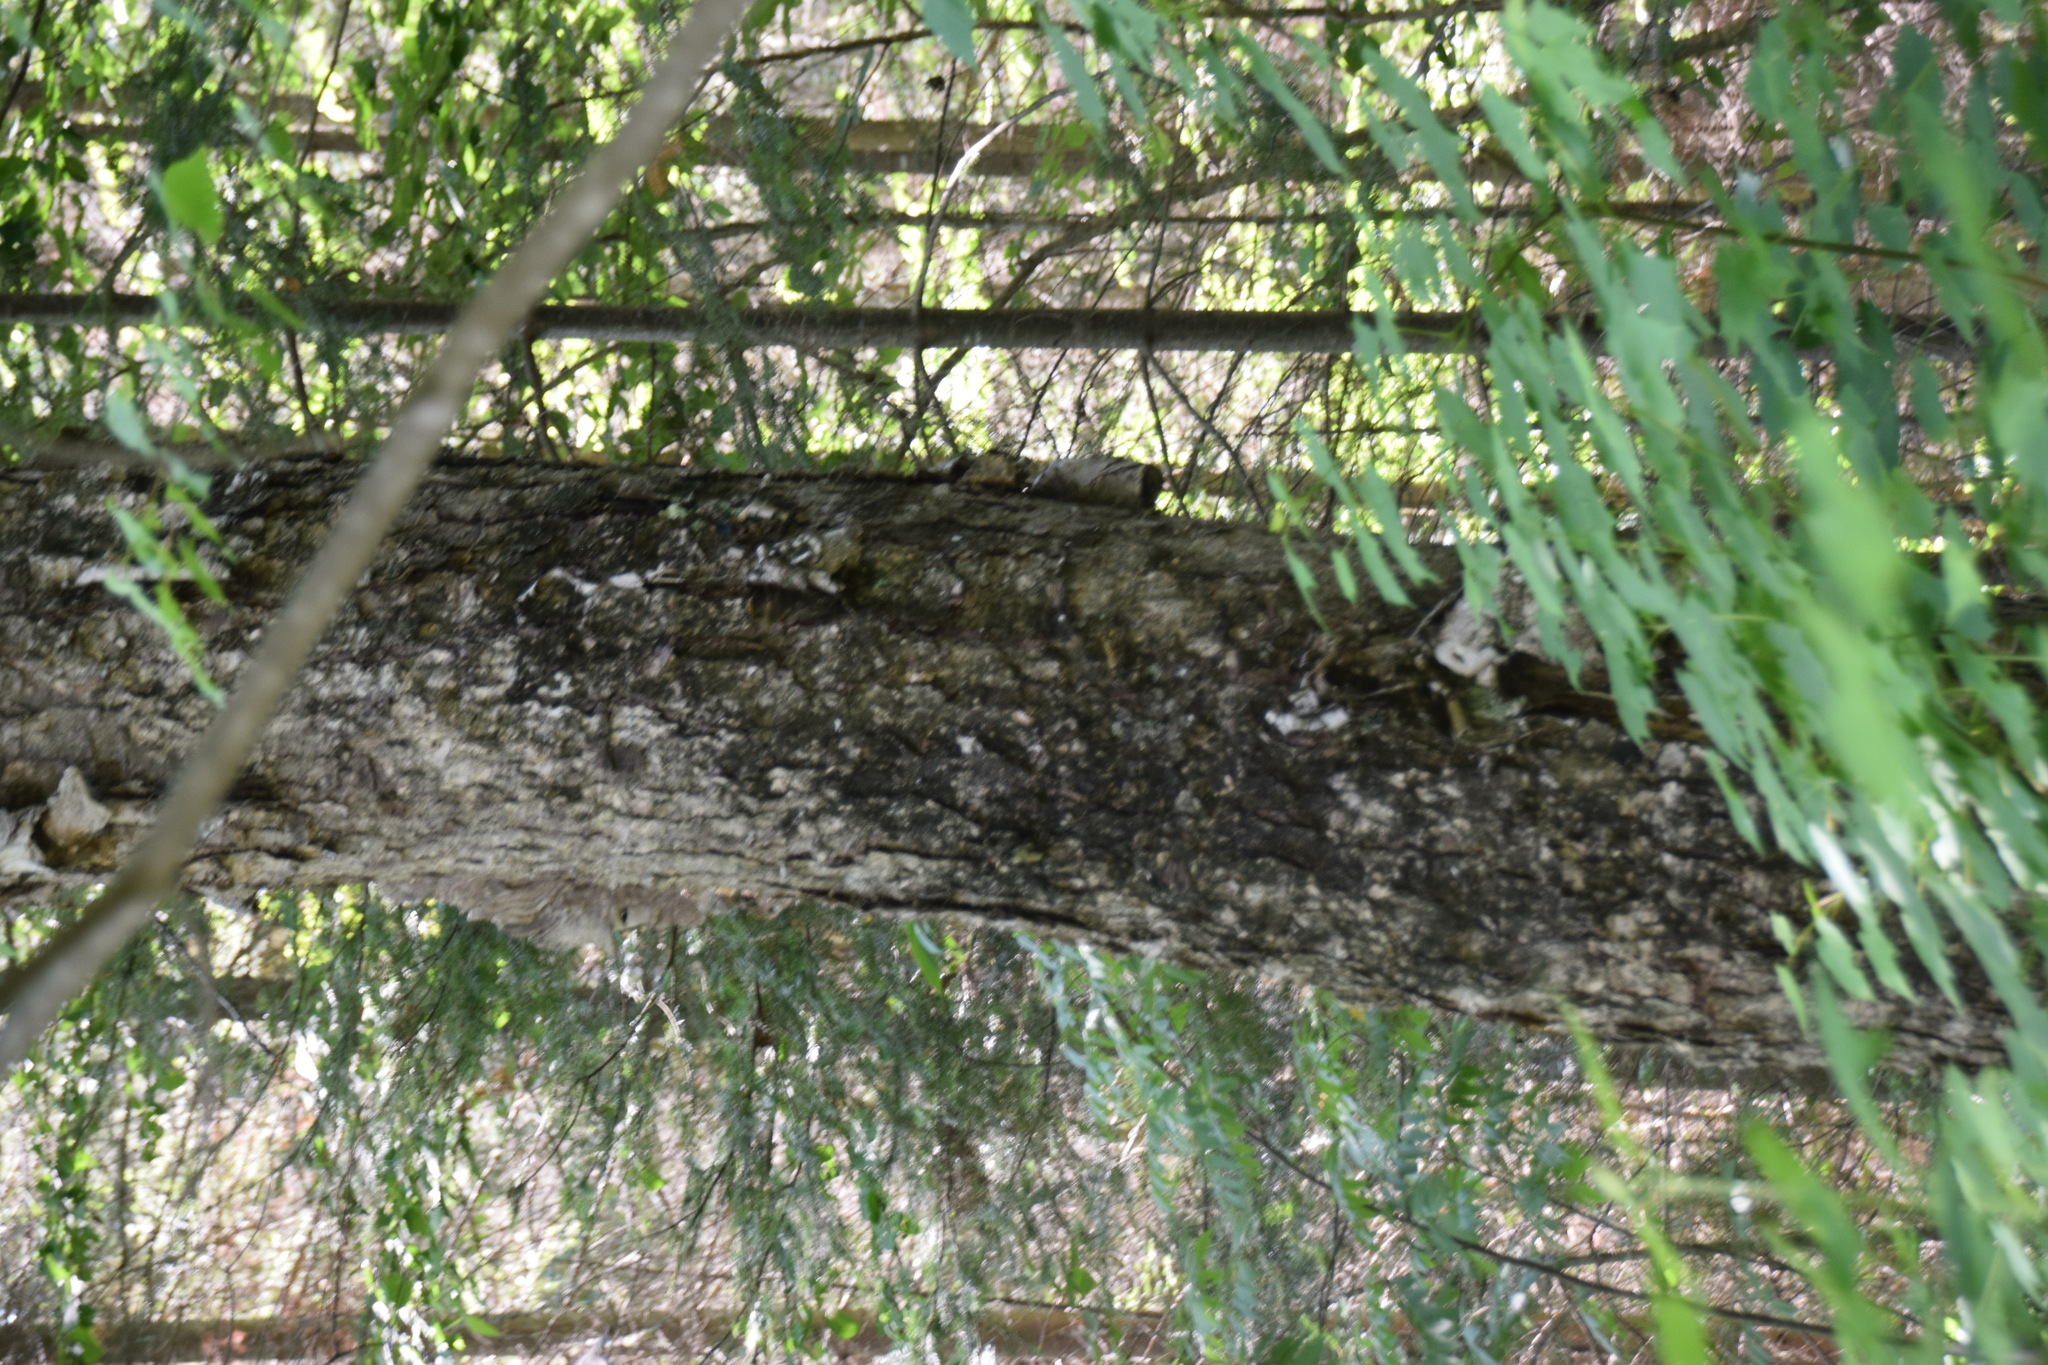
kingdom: Plantae
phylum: Tracheophyta
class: Magnoliopsida
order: Fagales
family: Betulaceae
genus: Betula
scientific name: Betula alleghaniensis
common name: Yellow birch
